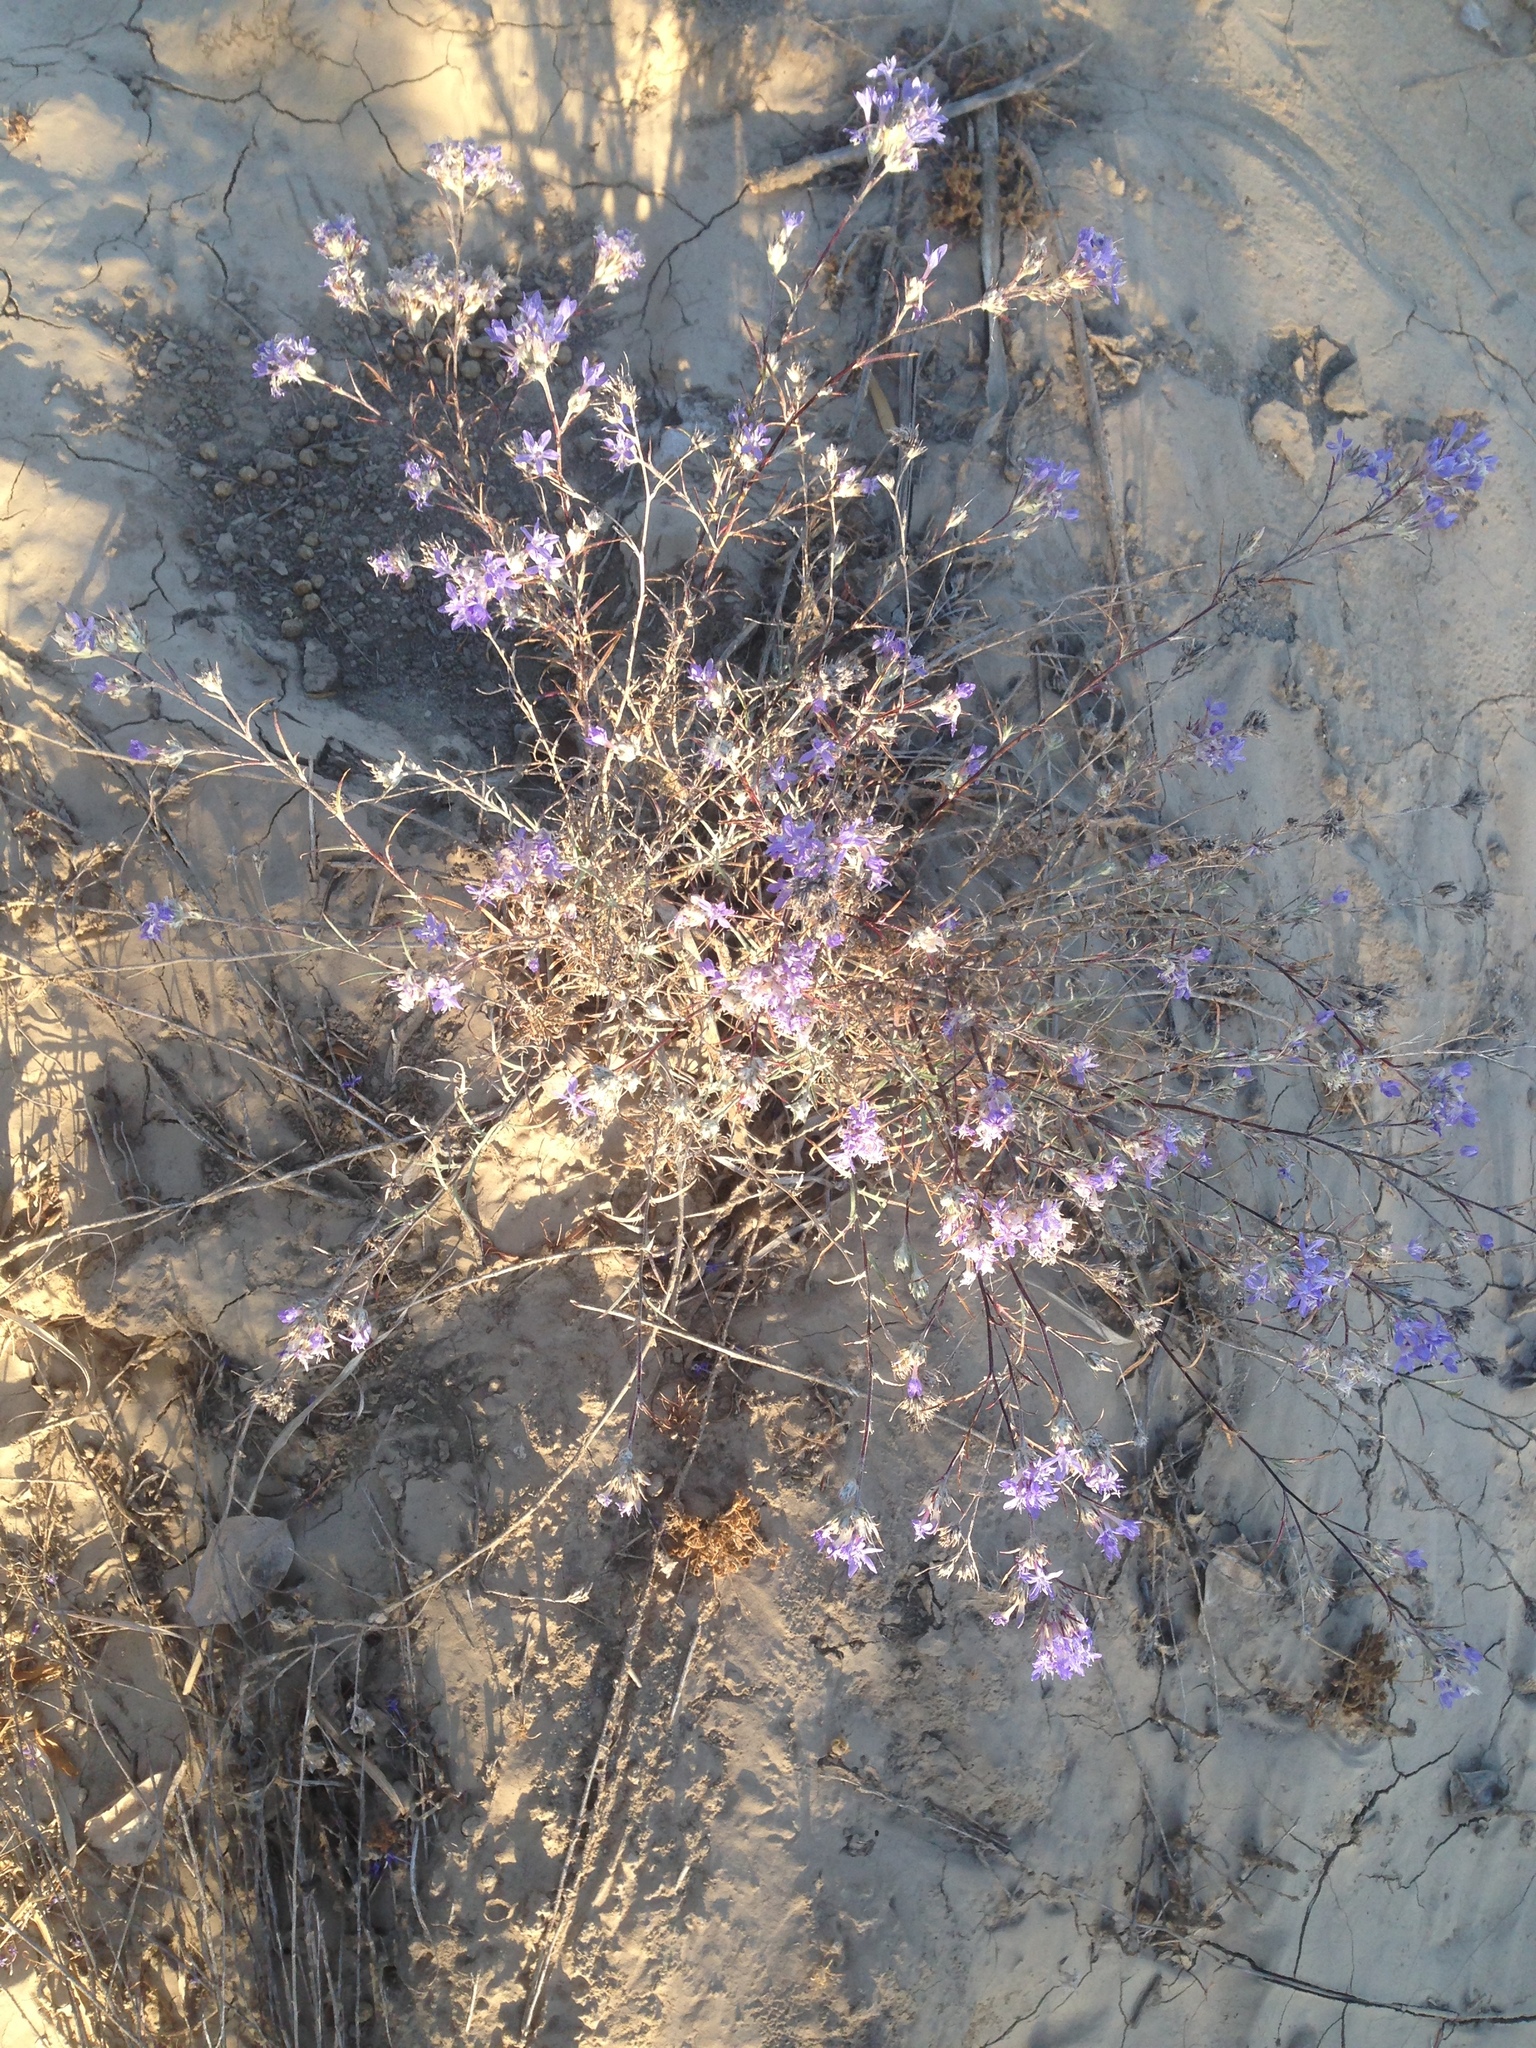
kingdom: Plantae
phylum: Tracheophyta
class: Magnoliopsida
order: Ericales
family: Polemoniaceae
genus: Eriastrum
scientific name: Eriastrum densifolium
